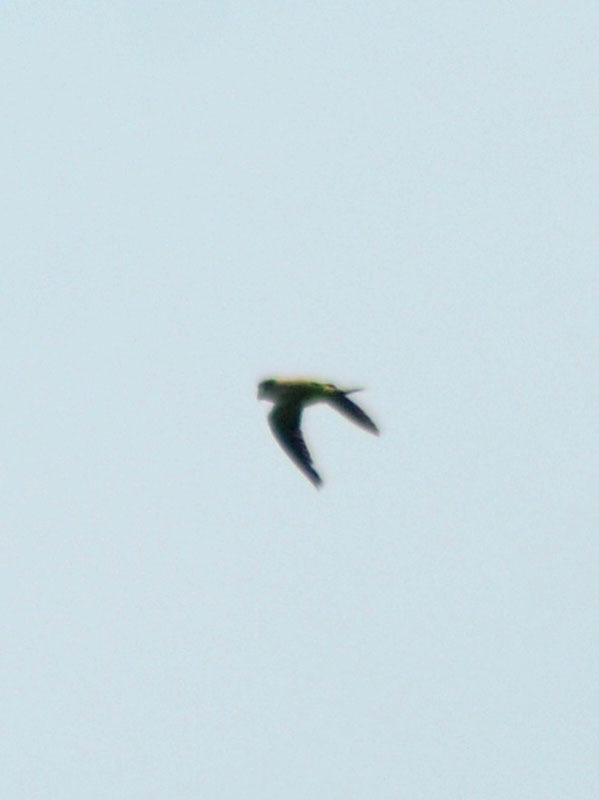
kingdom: Animalia
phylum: Chordata
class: Aves
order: Psittaciformes
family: Psittacidae
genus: Myiopsitta
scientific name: Myiopsitta monachus
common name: Monk parakeet
